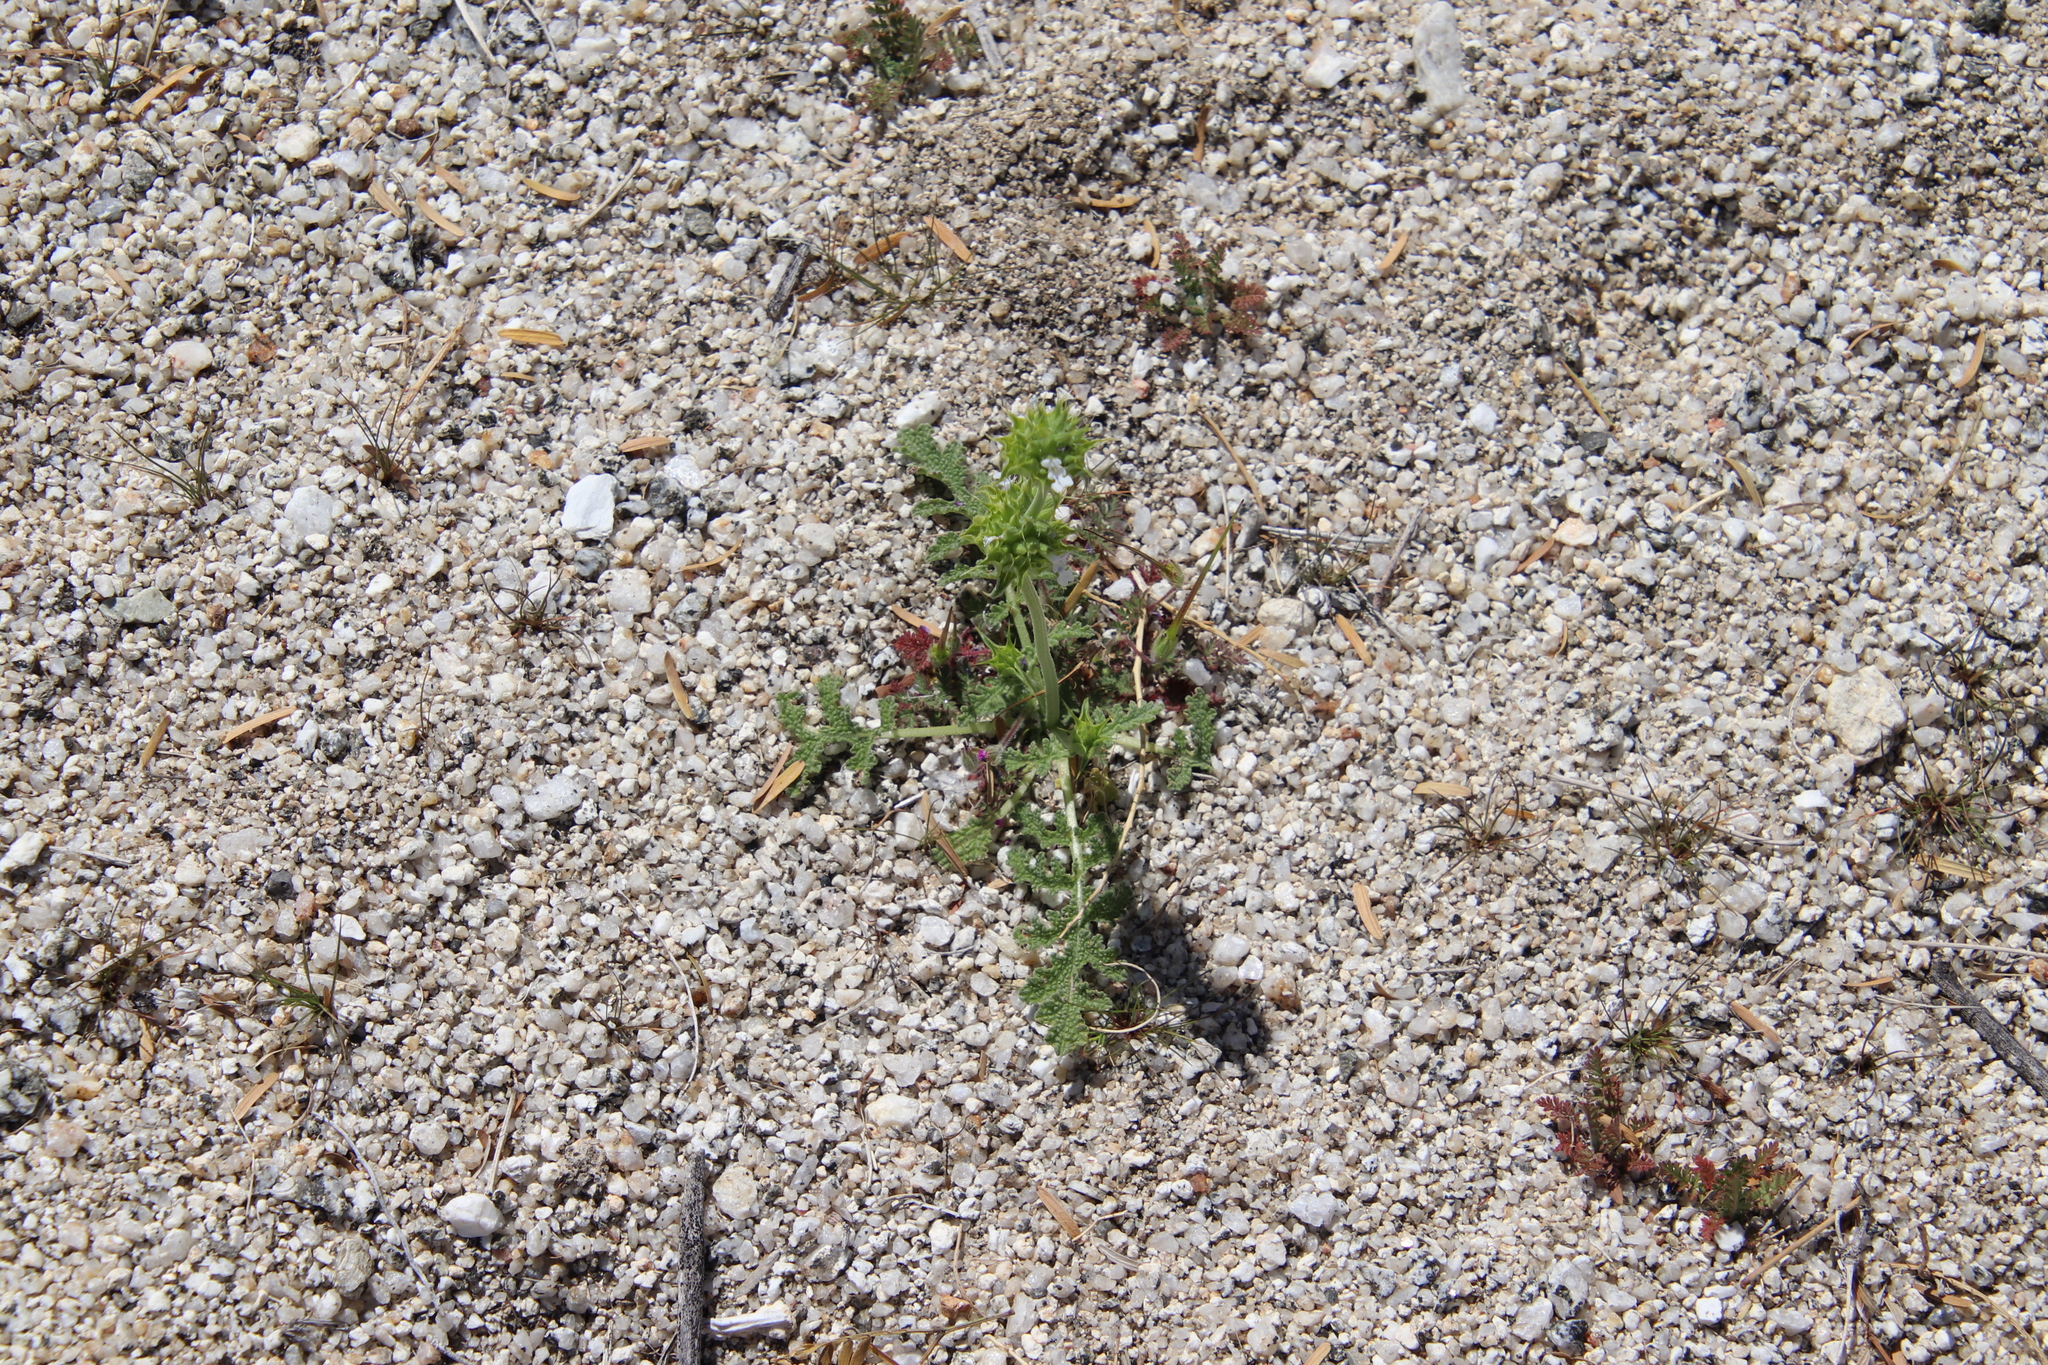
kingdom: Plantae
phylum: Tracheophyta
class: Magnoliopsida
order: Lamiales
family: Lamiaceae
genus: Salvia
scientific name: Salvia columbariae
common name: Chia
